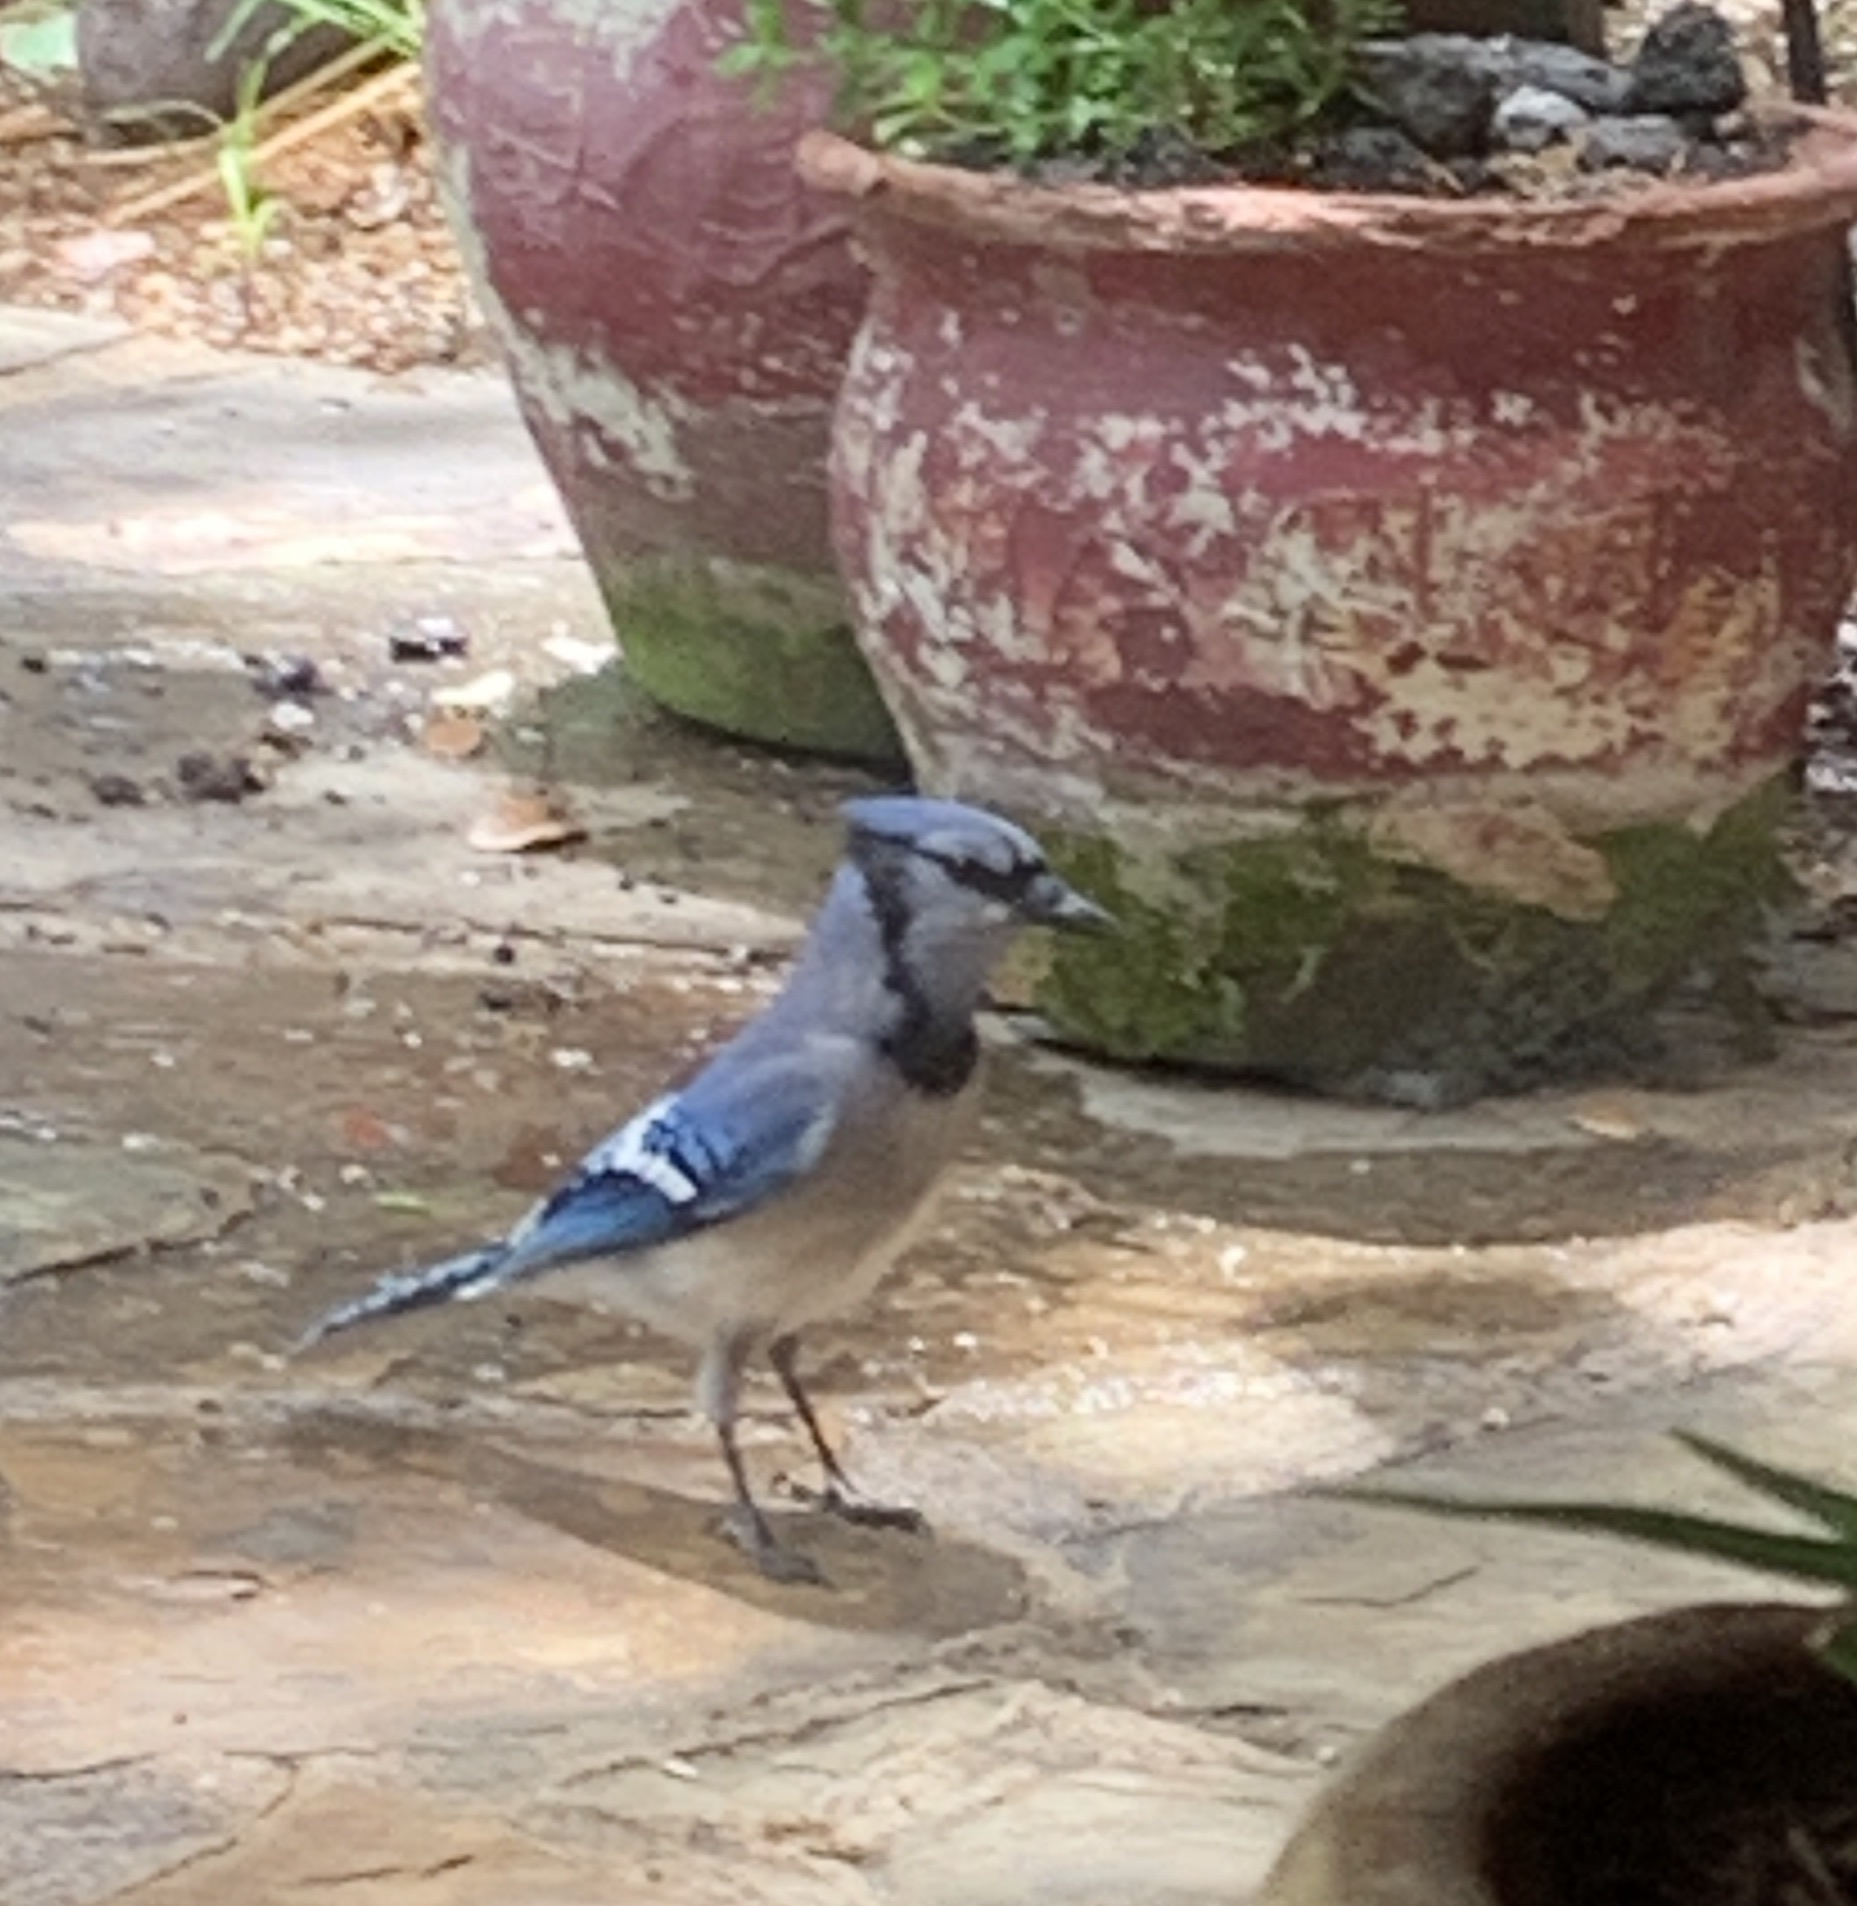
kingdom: Animalia
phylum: Chordata
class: Aves
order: Passeriformes
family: Corvidae
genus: Cyanocitta
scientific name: Cyanocitta cristata
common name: Blue jay
